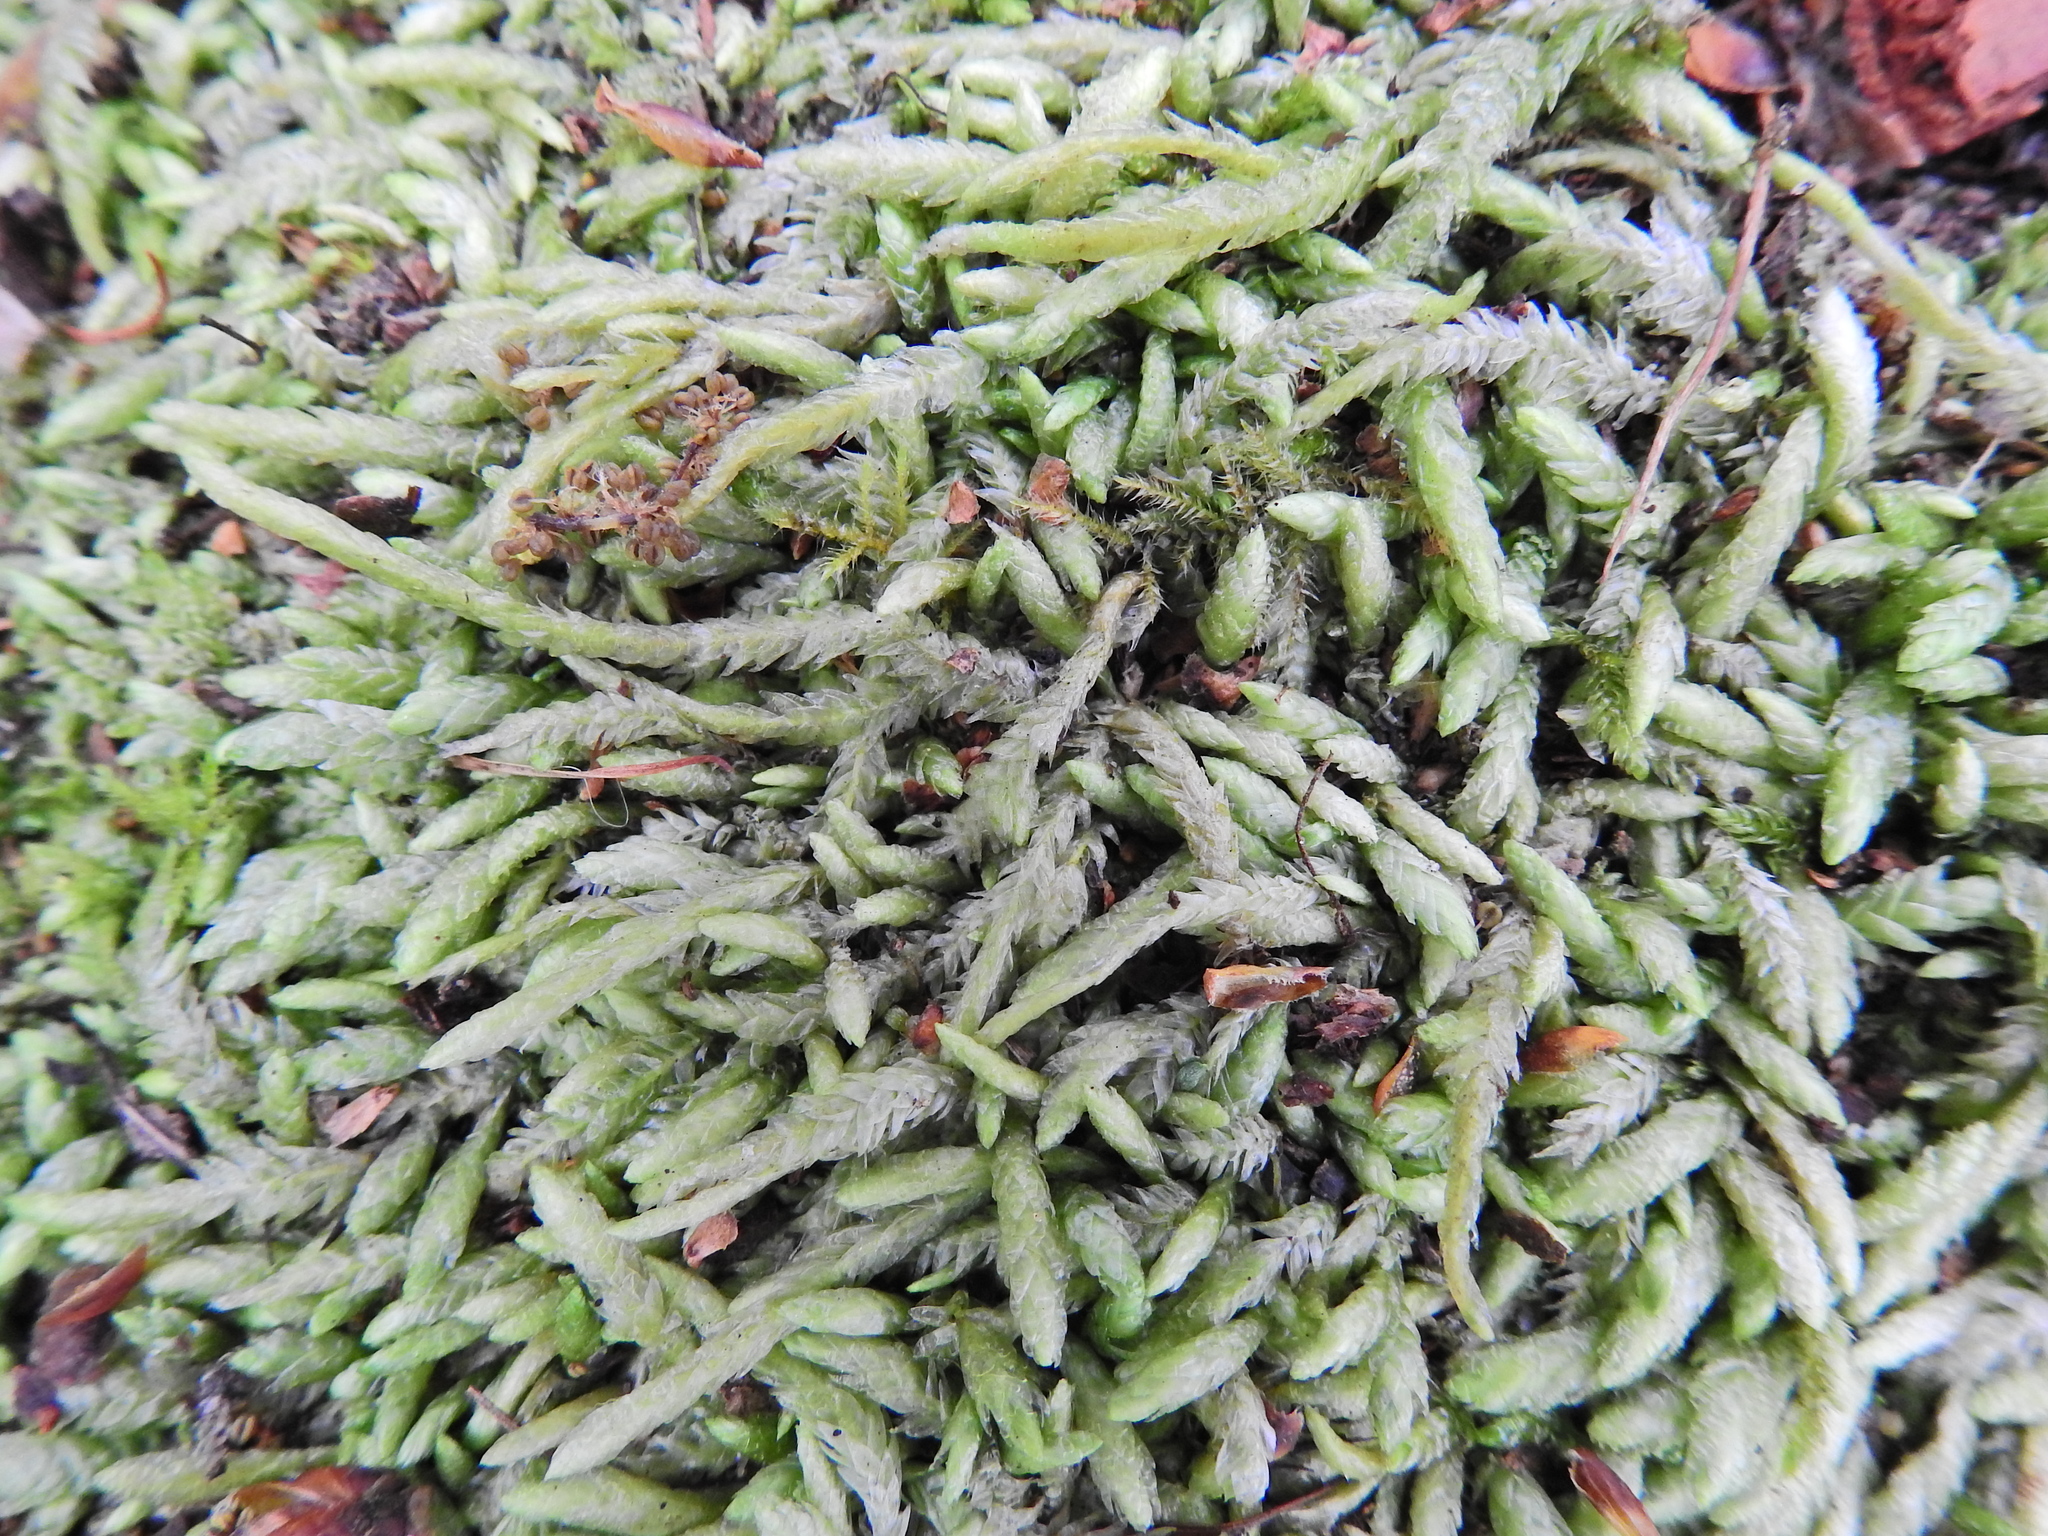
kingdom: Plantae
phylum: Bryophyta
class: Bryopsida
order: Hypnales
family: Plagiotheciaceae
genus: Plagiothecium
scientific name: Plagiothecium undulatum
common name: Waved silk-moss
